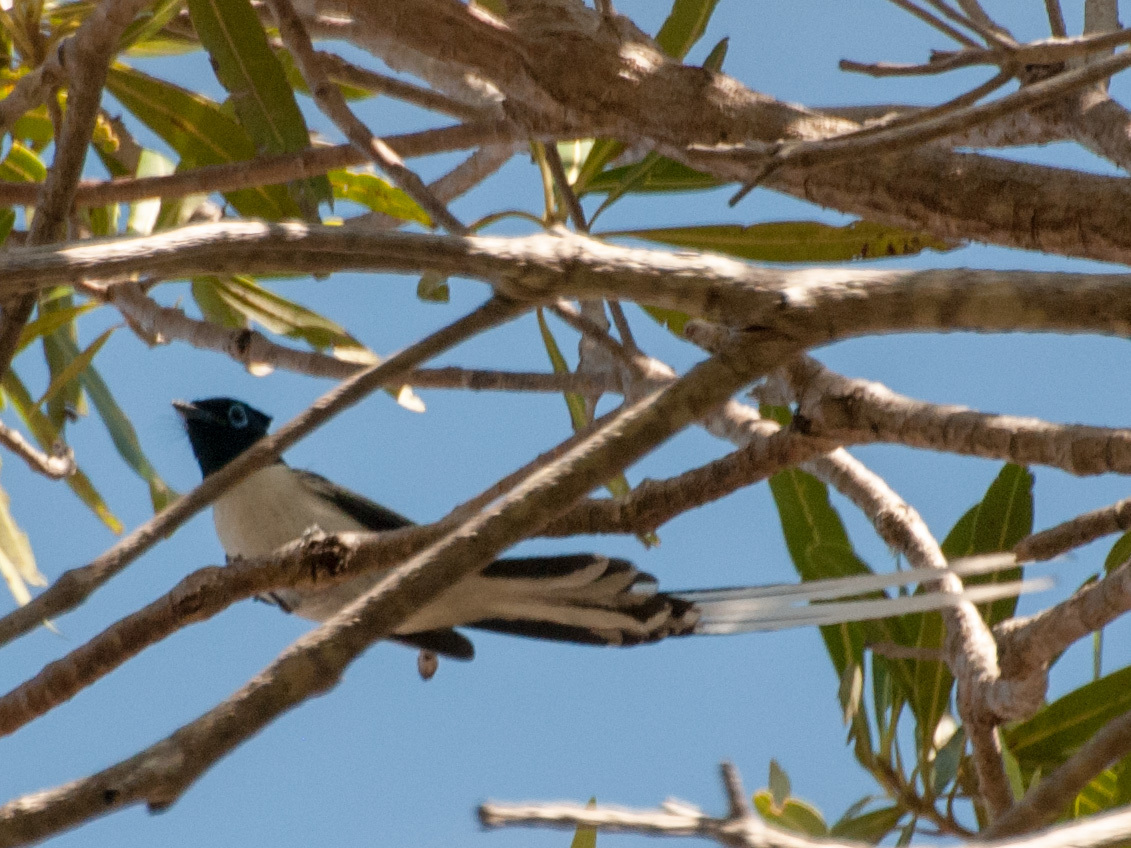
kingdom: Animalia
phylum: Chordata
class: Aves
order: Passeriformes
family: Monarchidae
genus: Terpsiphone
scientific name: Terpsiphone mutata
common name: Malagasy paradise flycatcher
